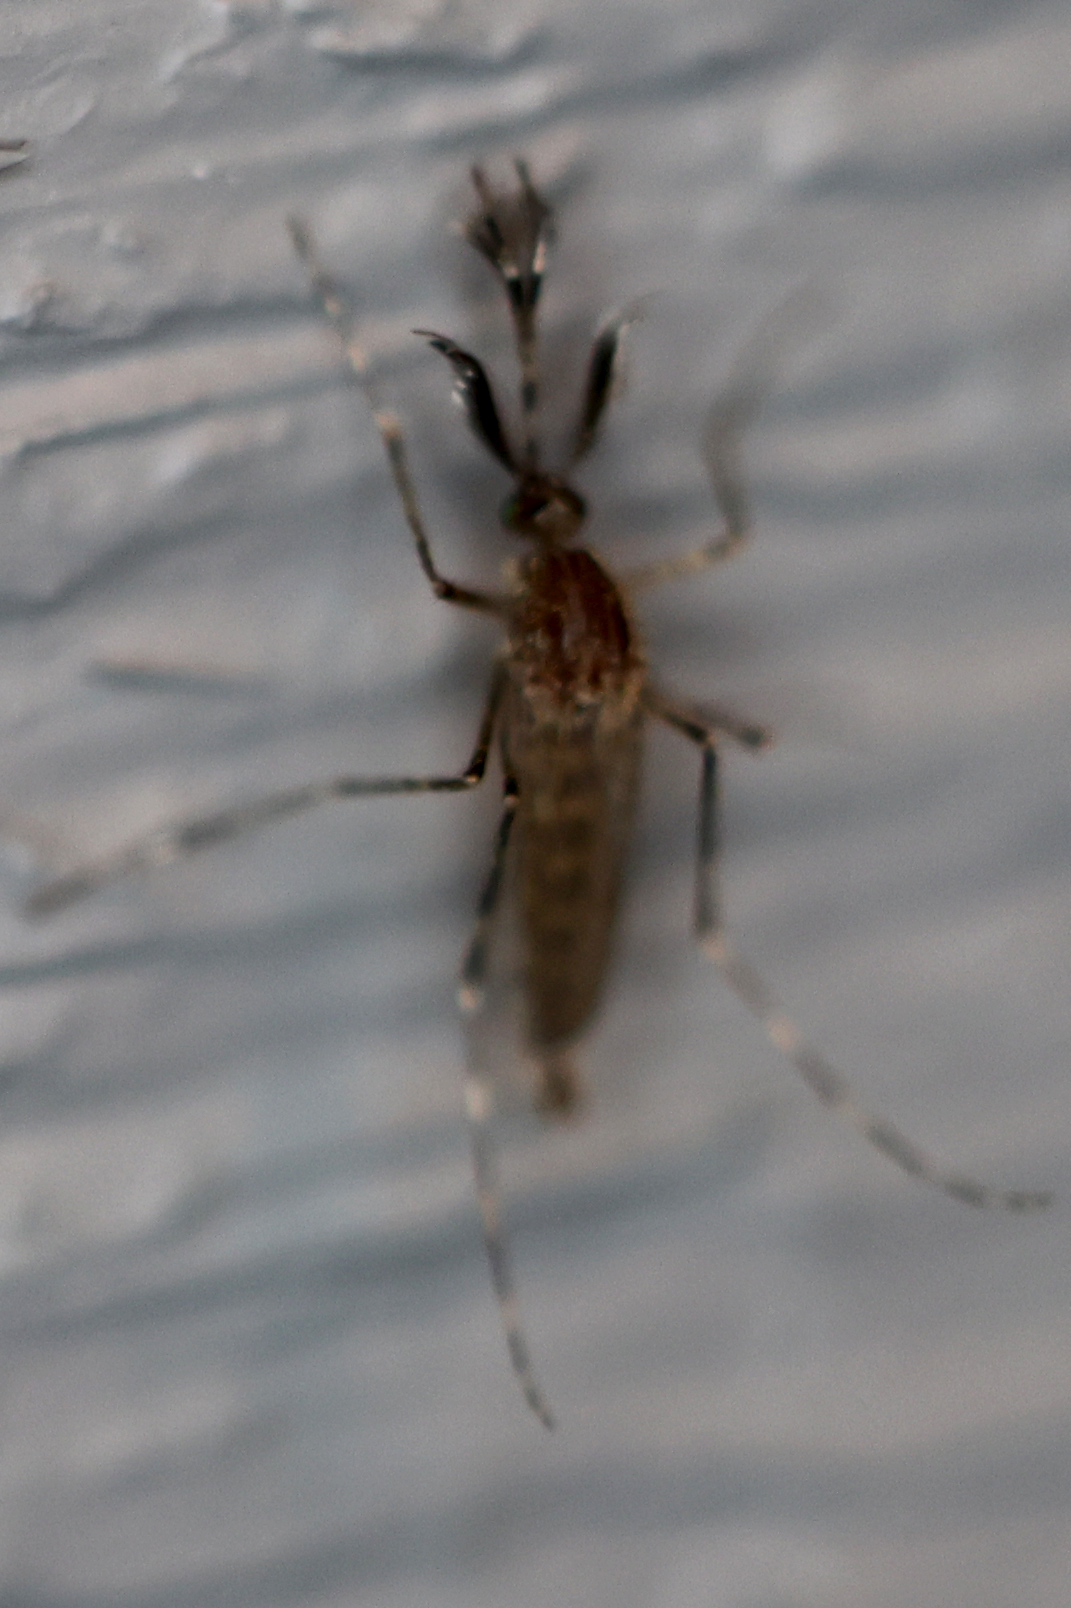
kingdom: Animalia
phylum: Arthropoda
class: Insecta
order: Diptera
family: Culicidae
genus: Coquillettidia
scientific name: Coquillettidia perturbans
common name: Cattail mosquito
